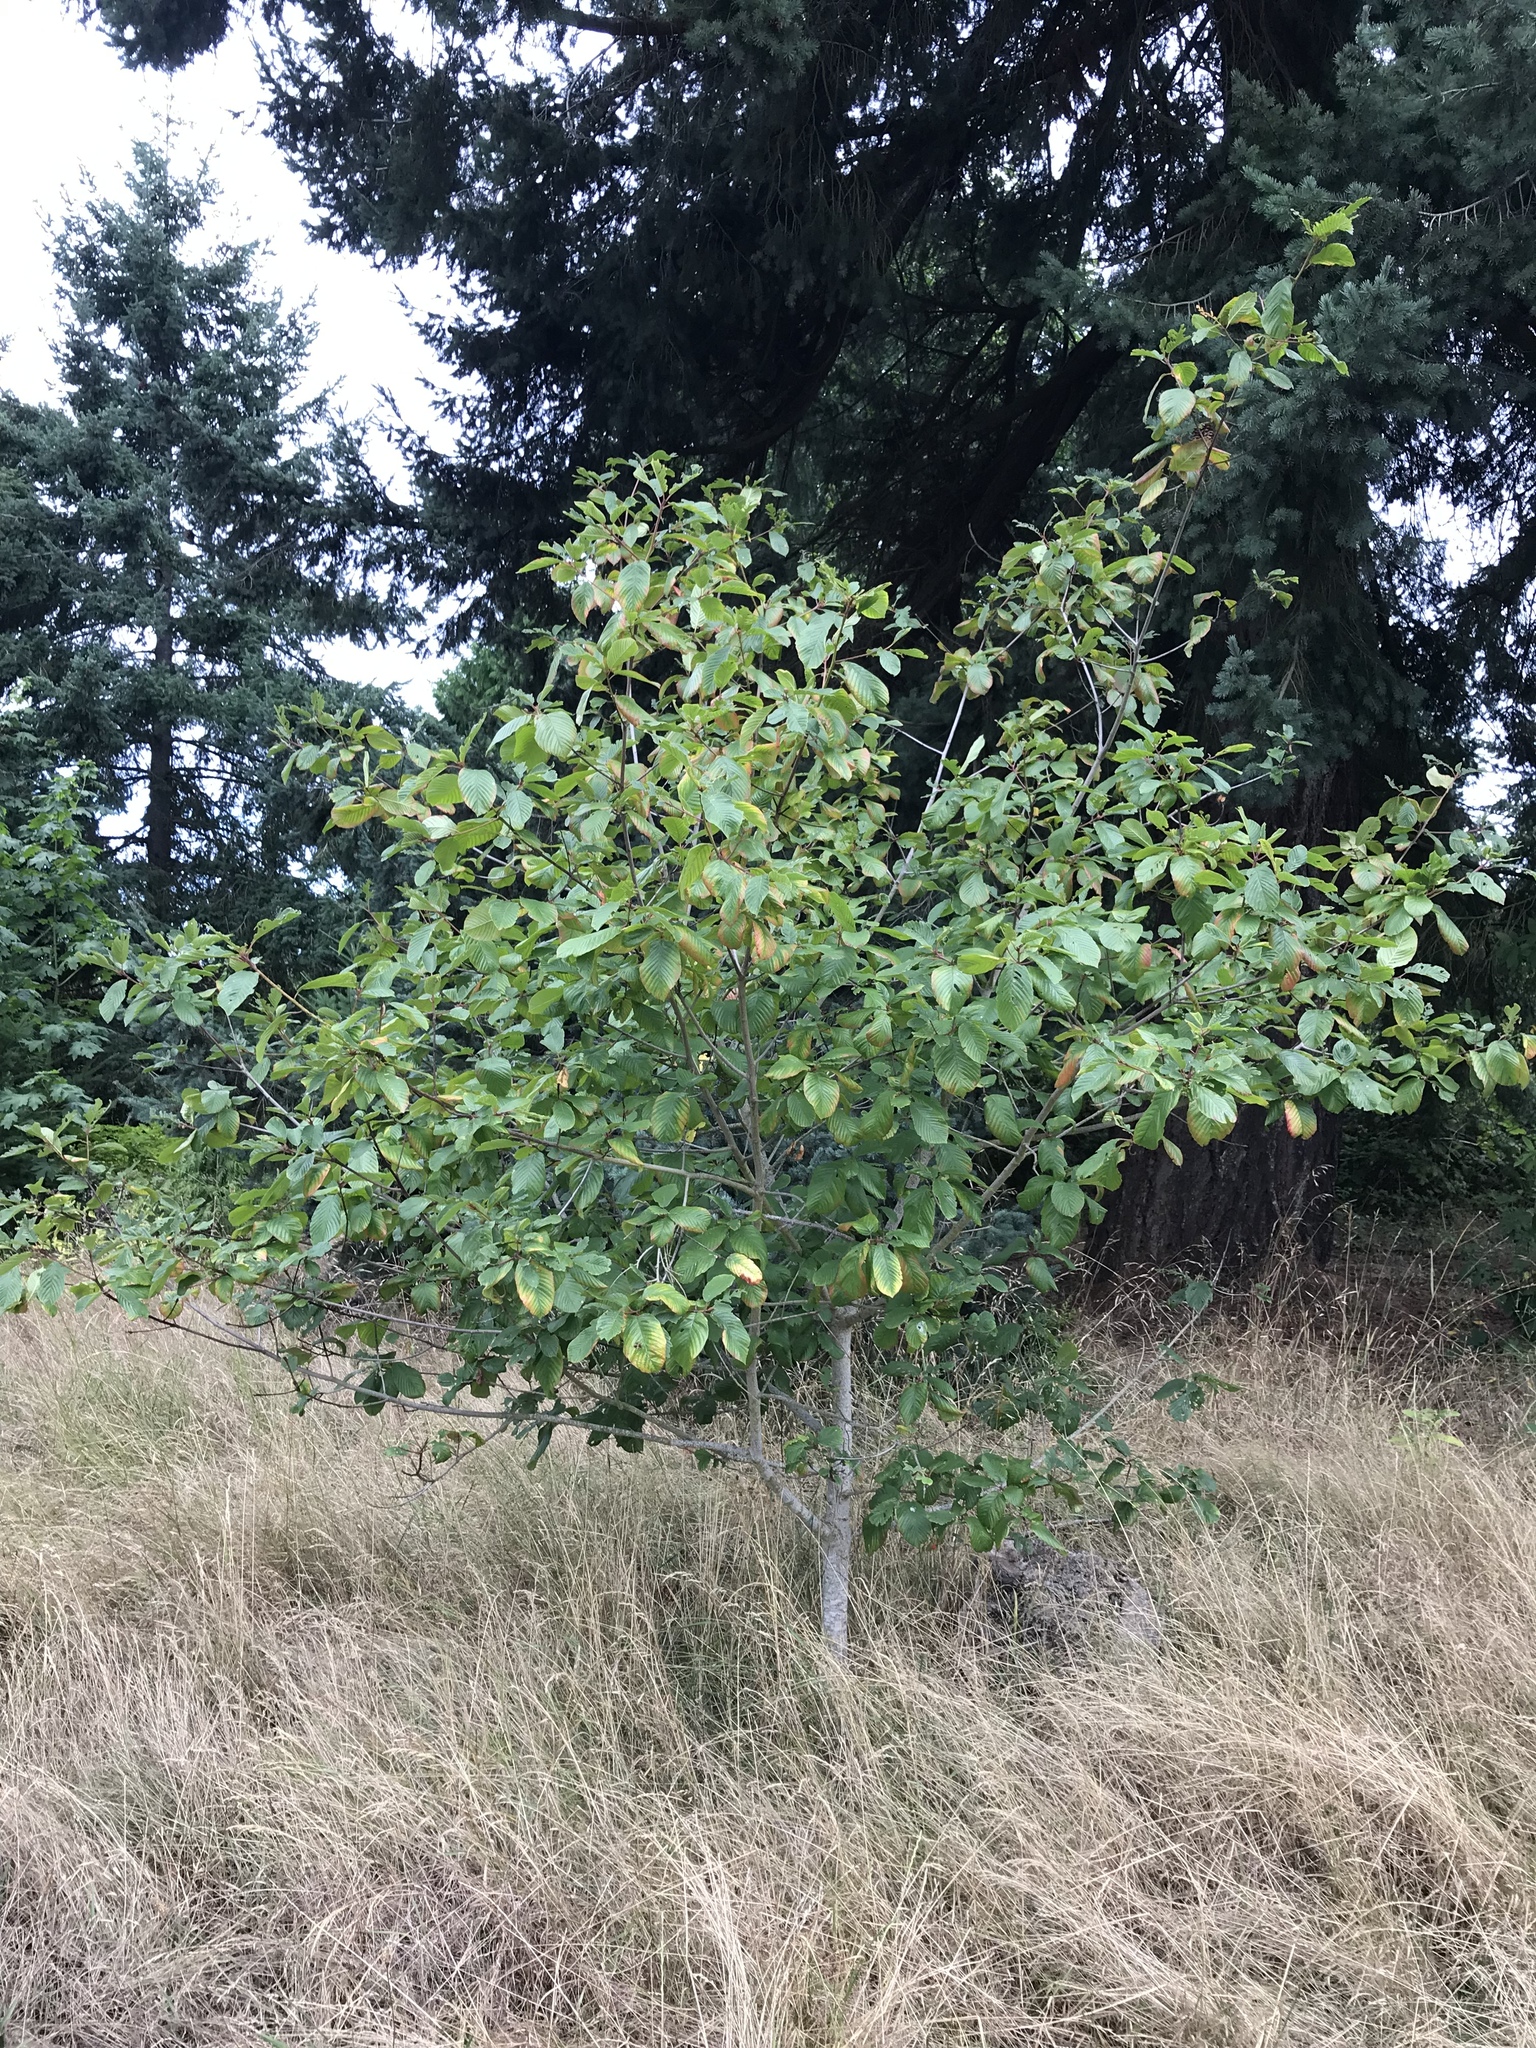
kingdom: Plantae
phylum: Tracheophyta
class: Magnoliopsida
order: Rosales
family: Rhamnaceae
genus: Frangula
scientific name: Frangula purshiana
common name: Cascara buckthorn
